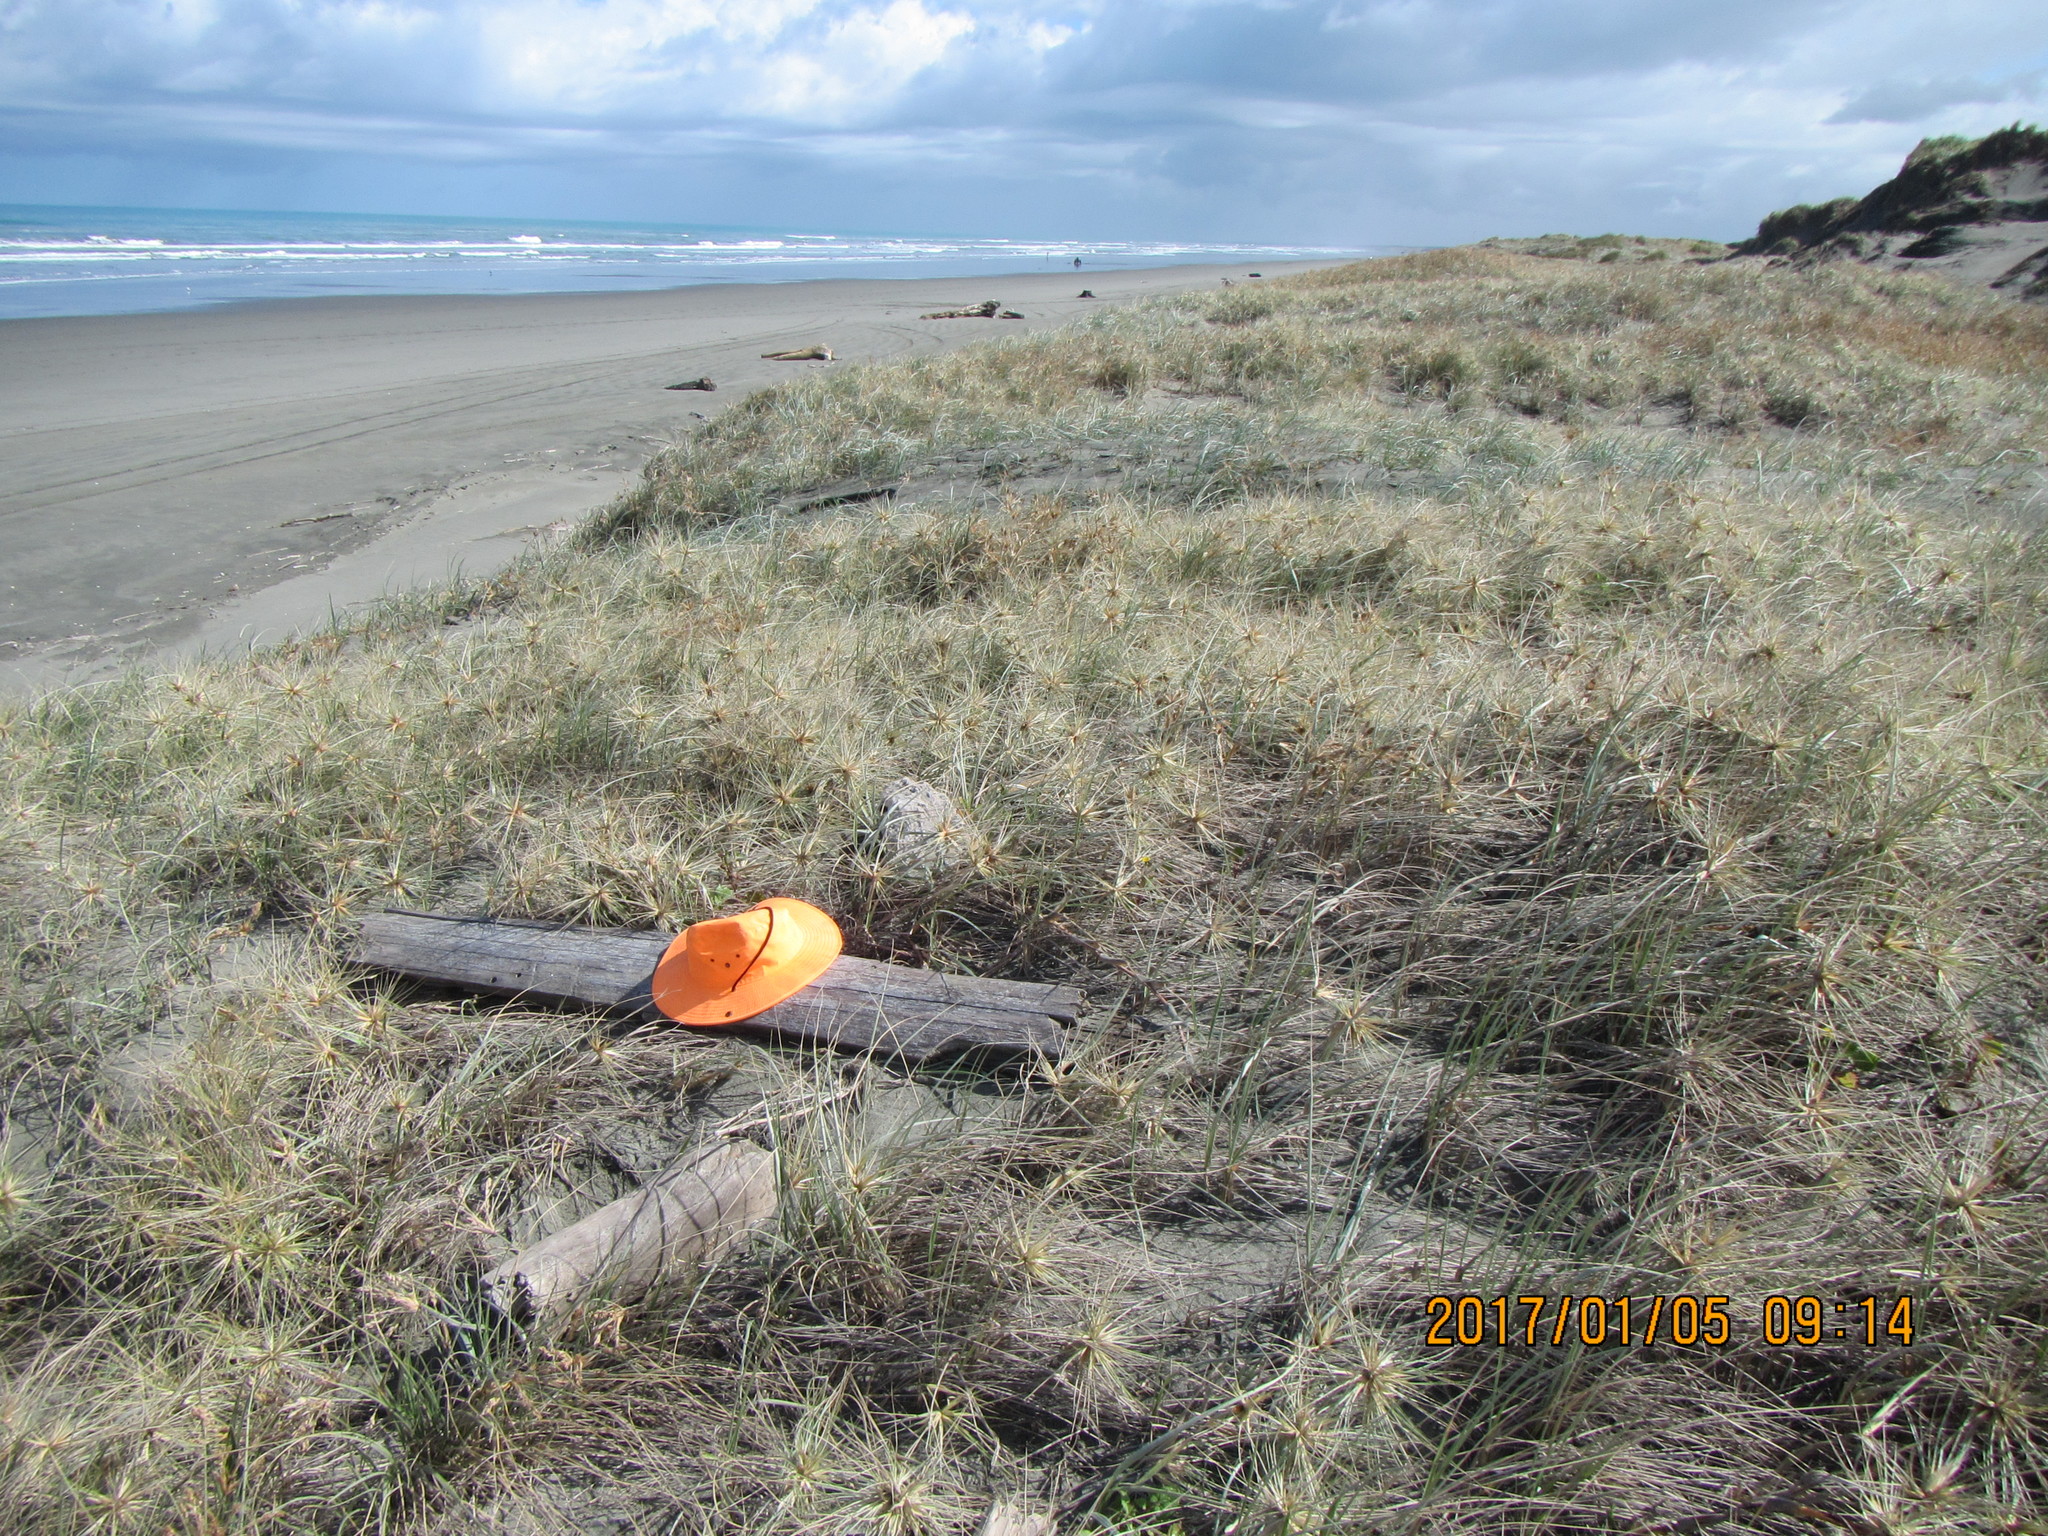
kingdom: Animalia
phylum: Arthropoda
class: Insecta
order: Dermaptera
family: Anisolabididae
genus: Anisolabis
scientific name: Anisolabis littorea
